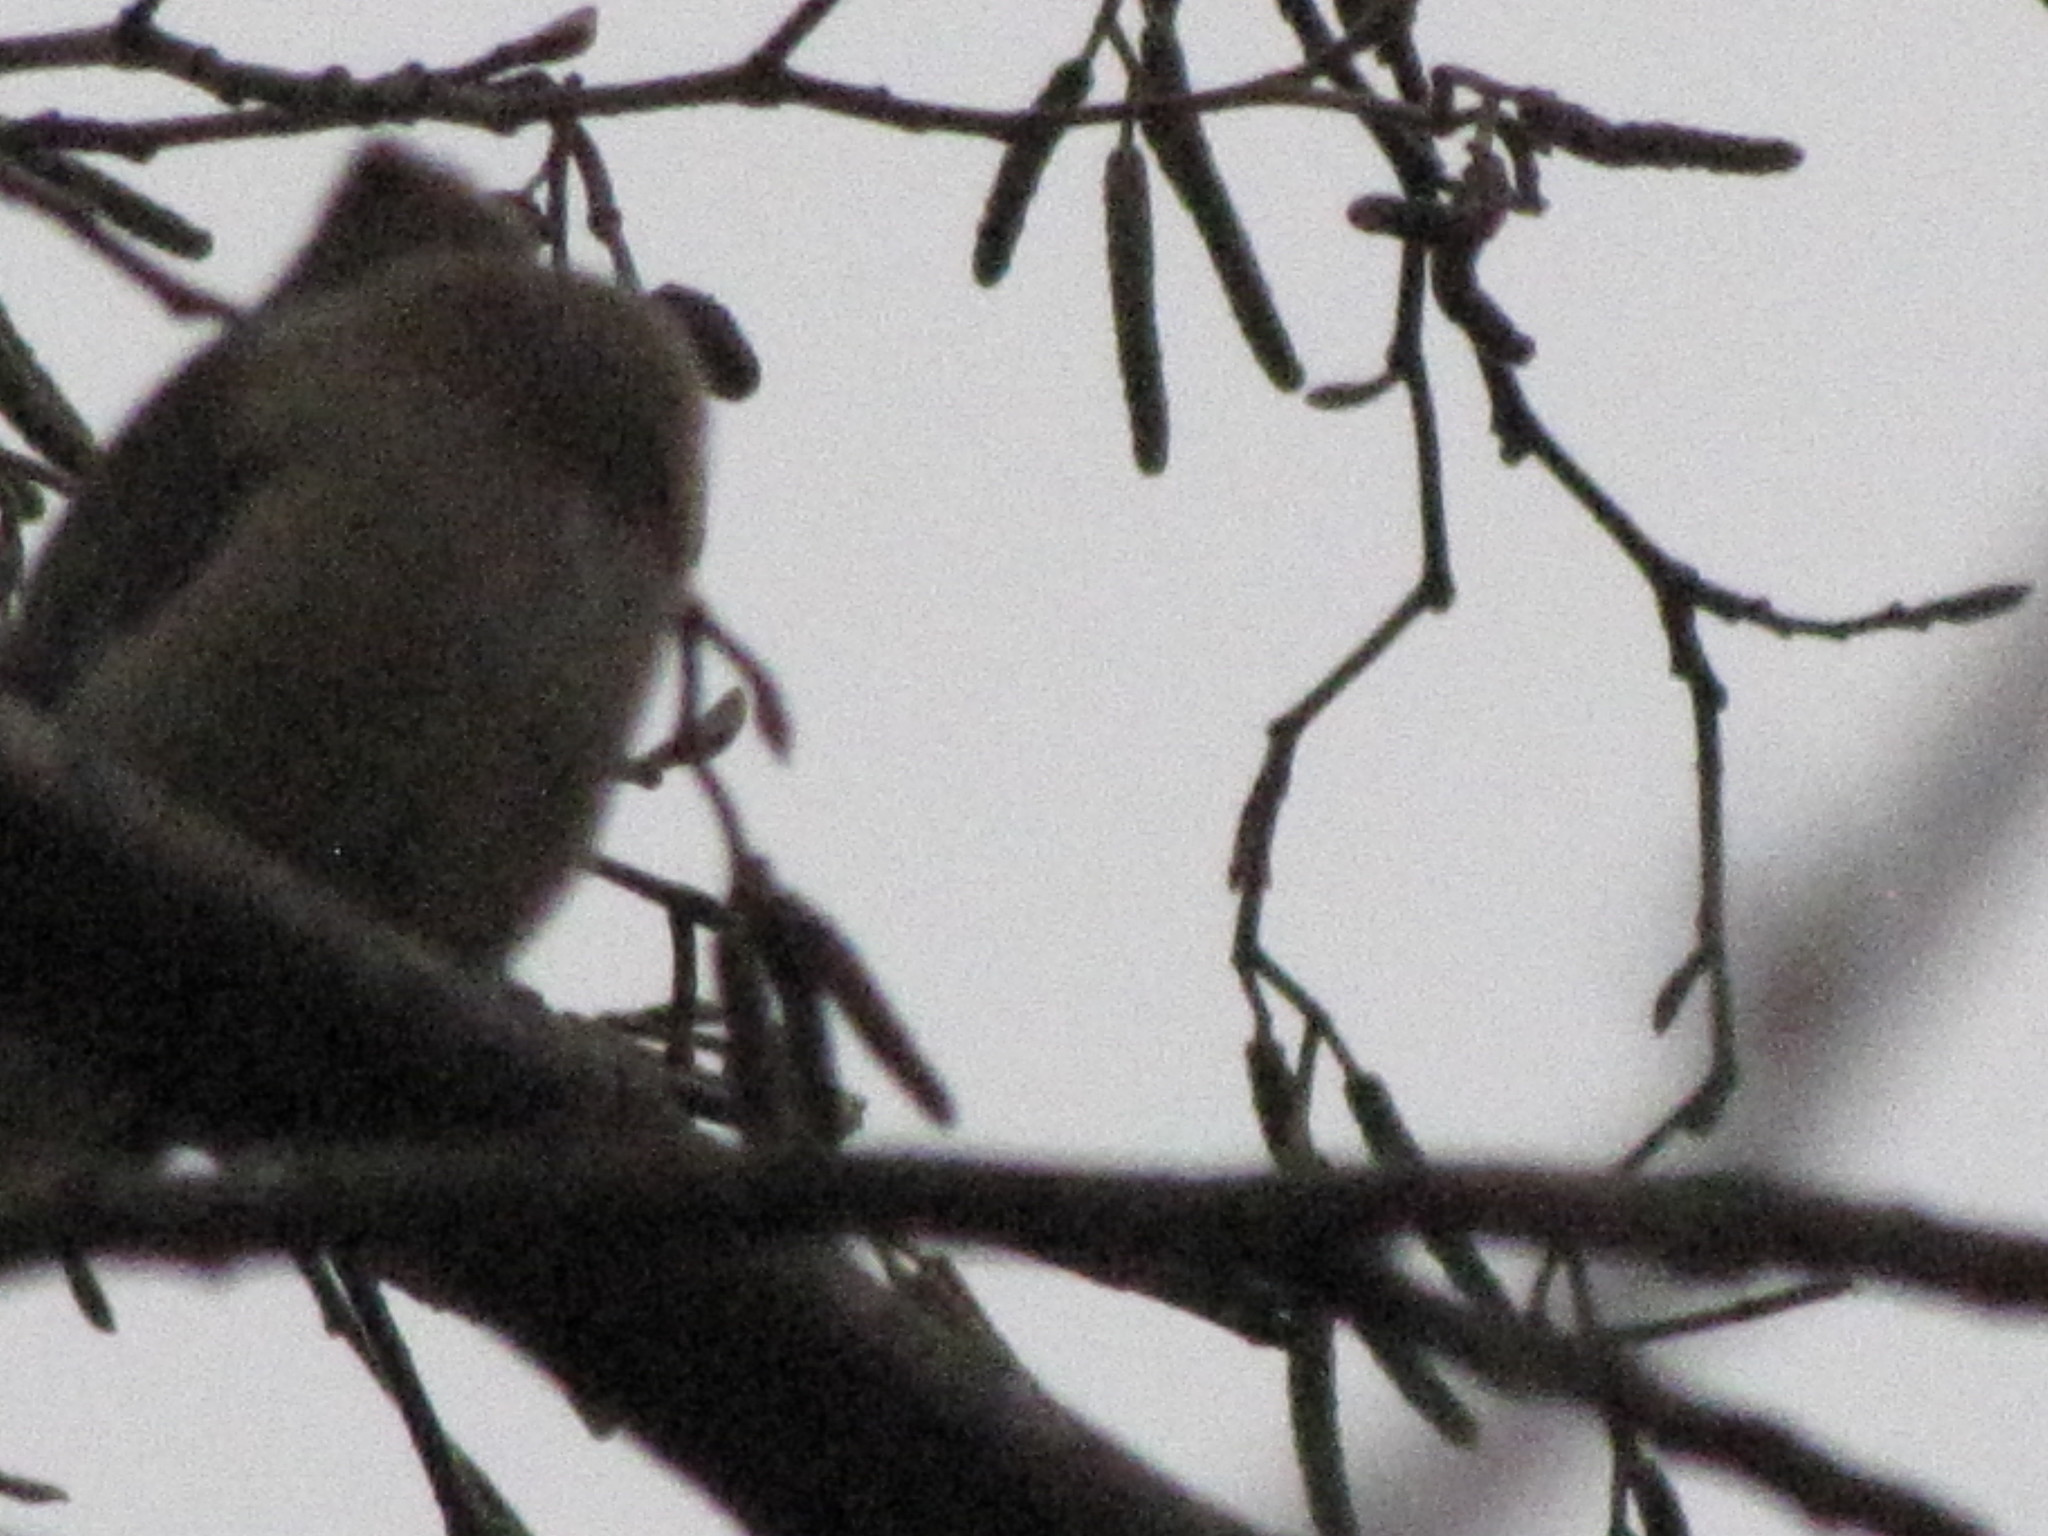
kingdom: Animalia
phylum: Chordata
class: Aves
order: Passeriformes
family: Bombycillidae
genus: Bombycilla
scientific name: Bombycilla cedrorum
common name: Cedar waxwing
